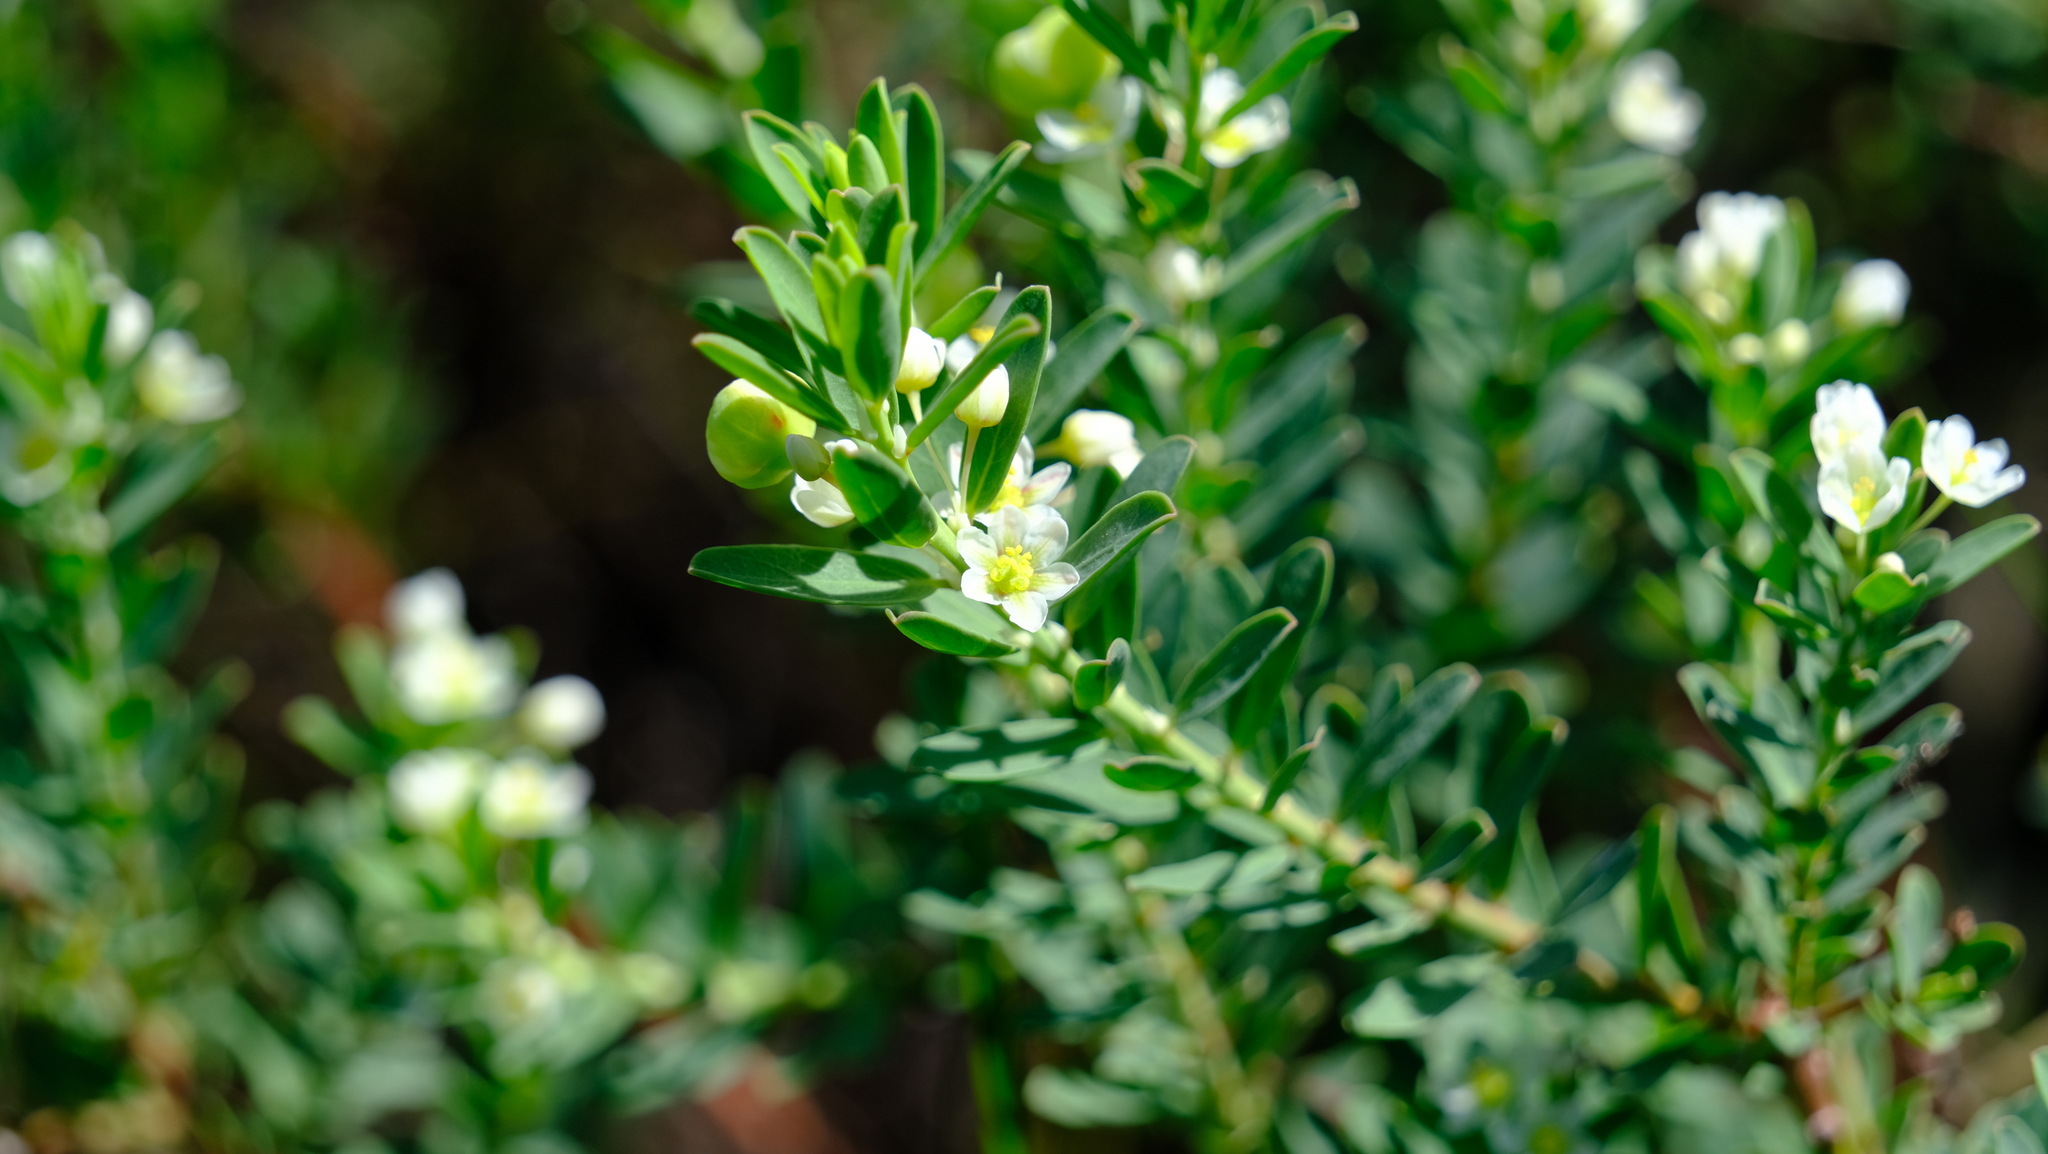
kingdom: Plantae
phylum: Tracheophyta
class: Magnoliopsida
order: Malpighiales
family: Phyllanthaceae
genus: Phyllanthus
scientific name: Phyllanthus calycinus
